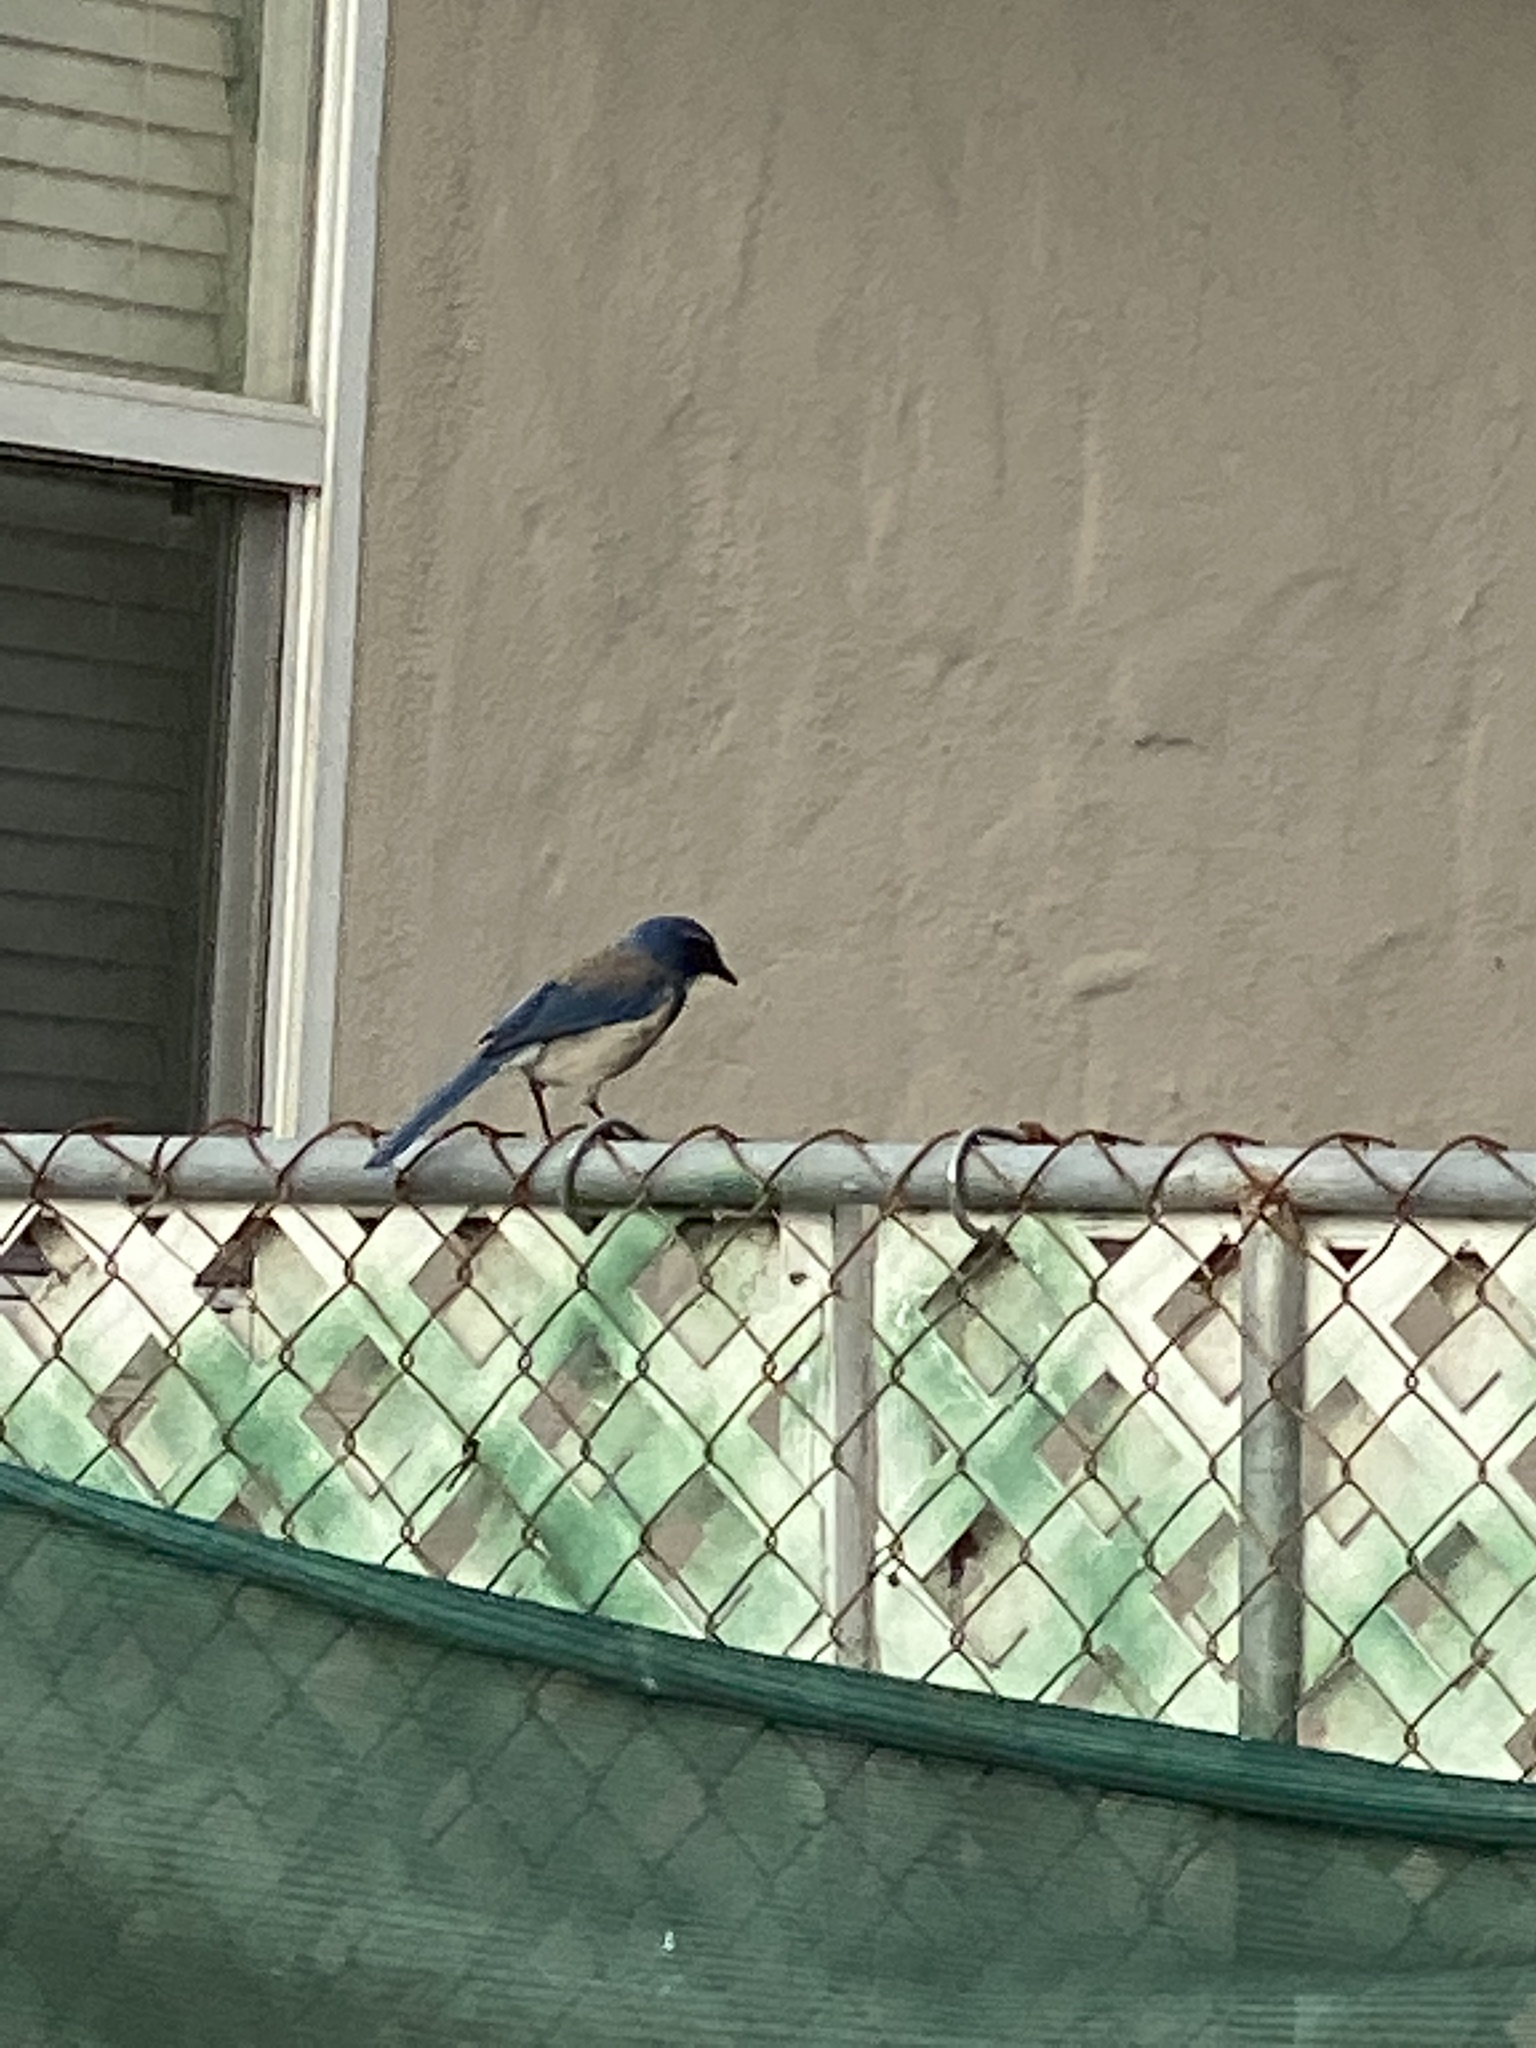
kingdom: Animalia
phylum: Chordata
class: Aves
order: Passeriformes
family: Corvidae
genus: Aphelocoma
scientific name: Aphelocoma californica
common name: California scrub-jay
